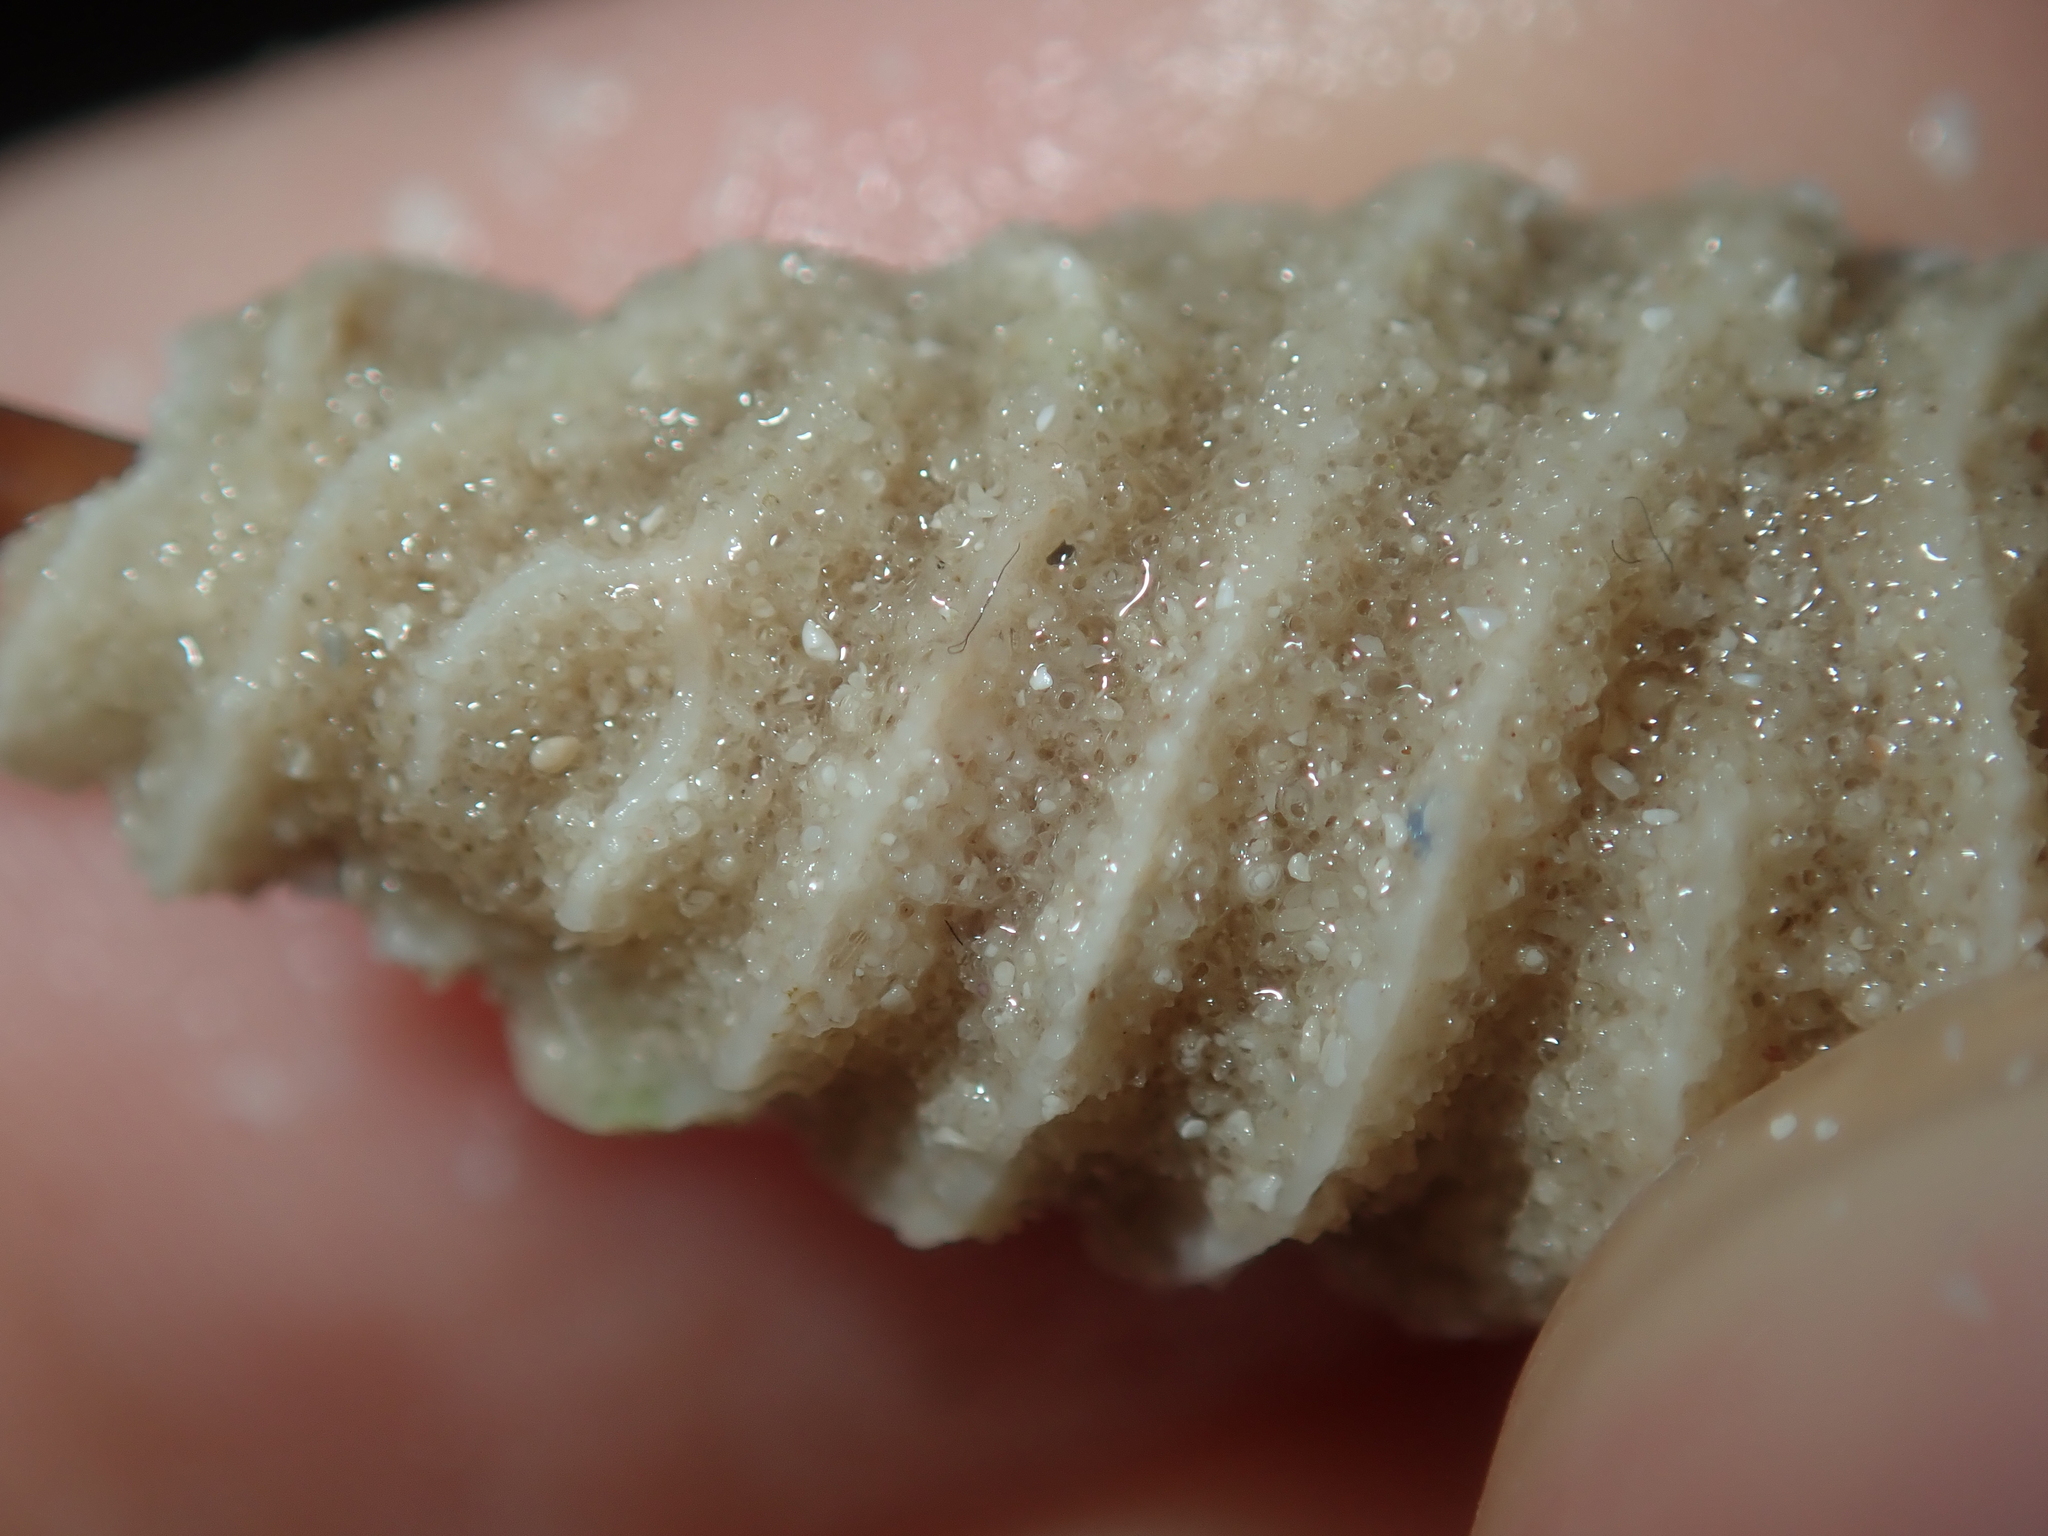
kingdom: Animalia
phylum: Bryozoa
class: Stenolaemata
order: Cyclostomatida
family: Densiporidae
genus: Densipora
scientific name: Densipora corrugata
